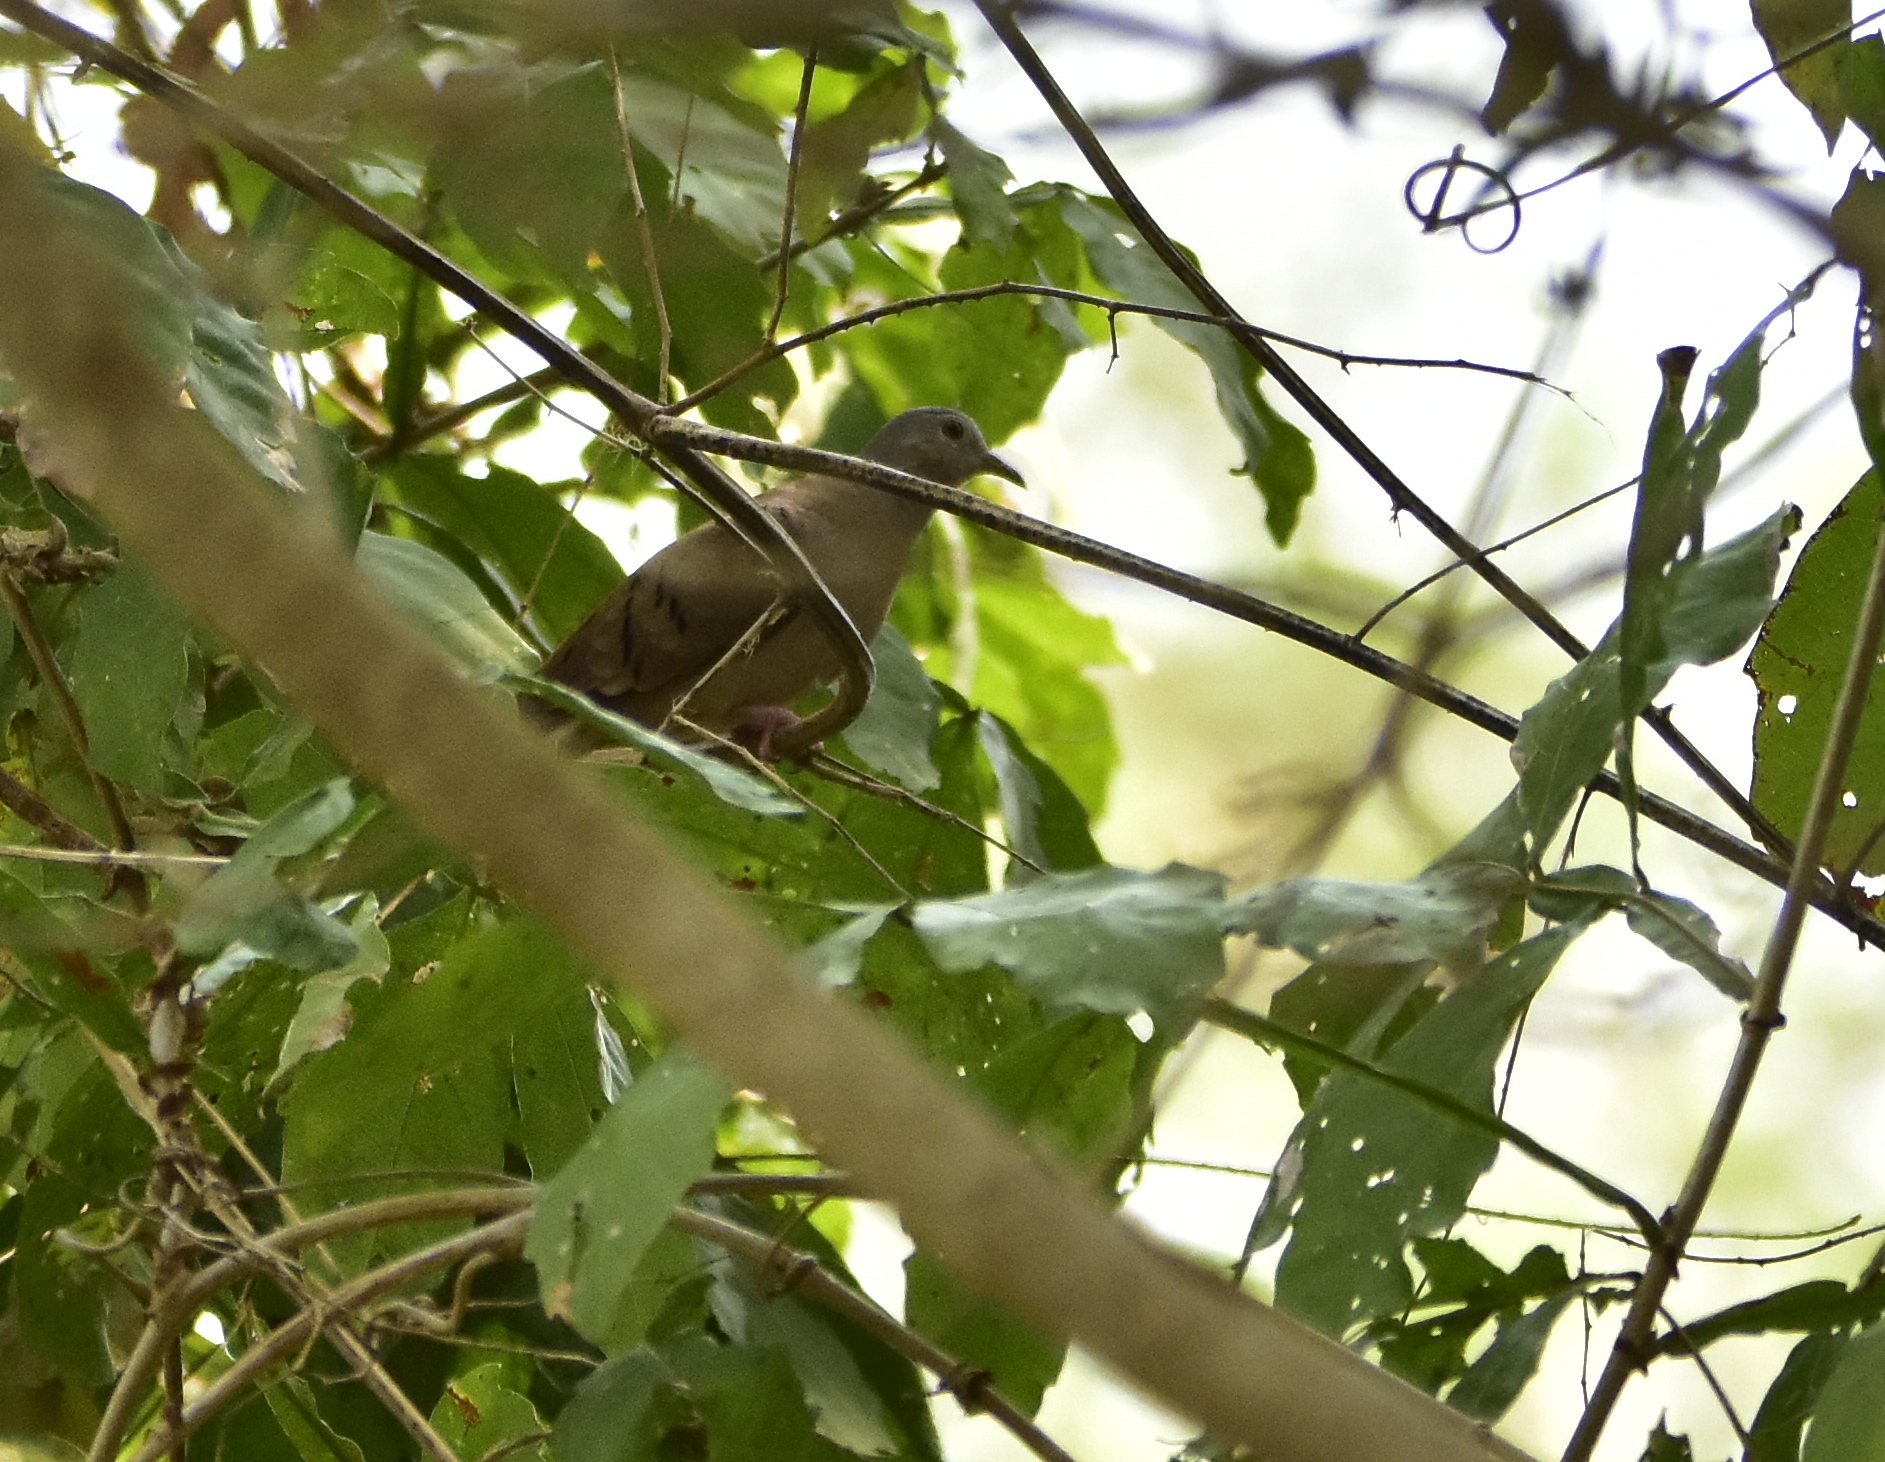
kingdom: Animalia
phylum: Chordata
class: Aves
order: Columbiformes
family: Columbidae
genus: Columbina
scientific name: Columbina talpacoti
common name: Ruddy ground dove
